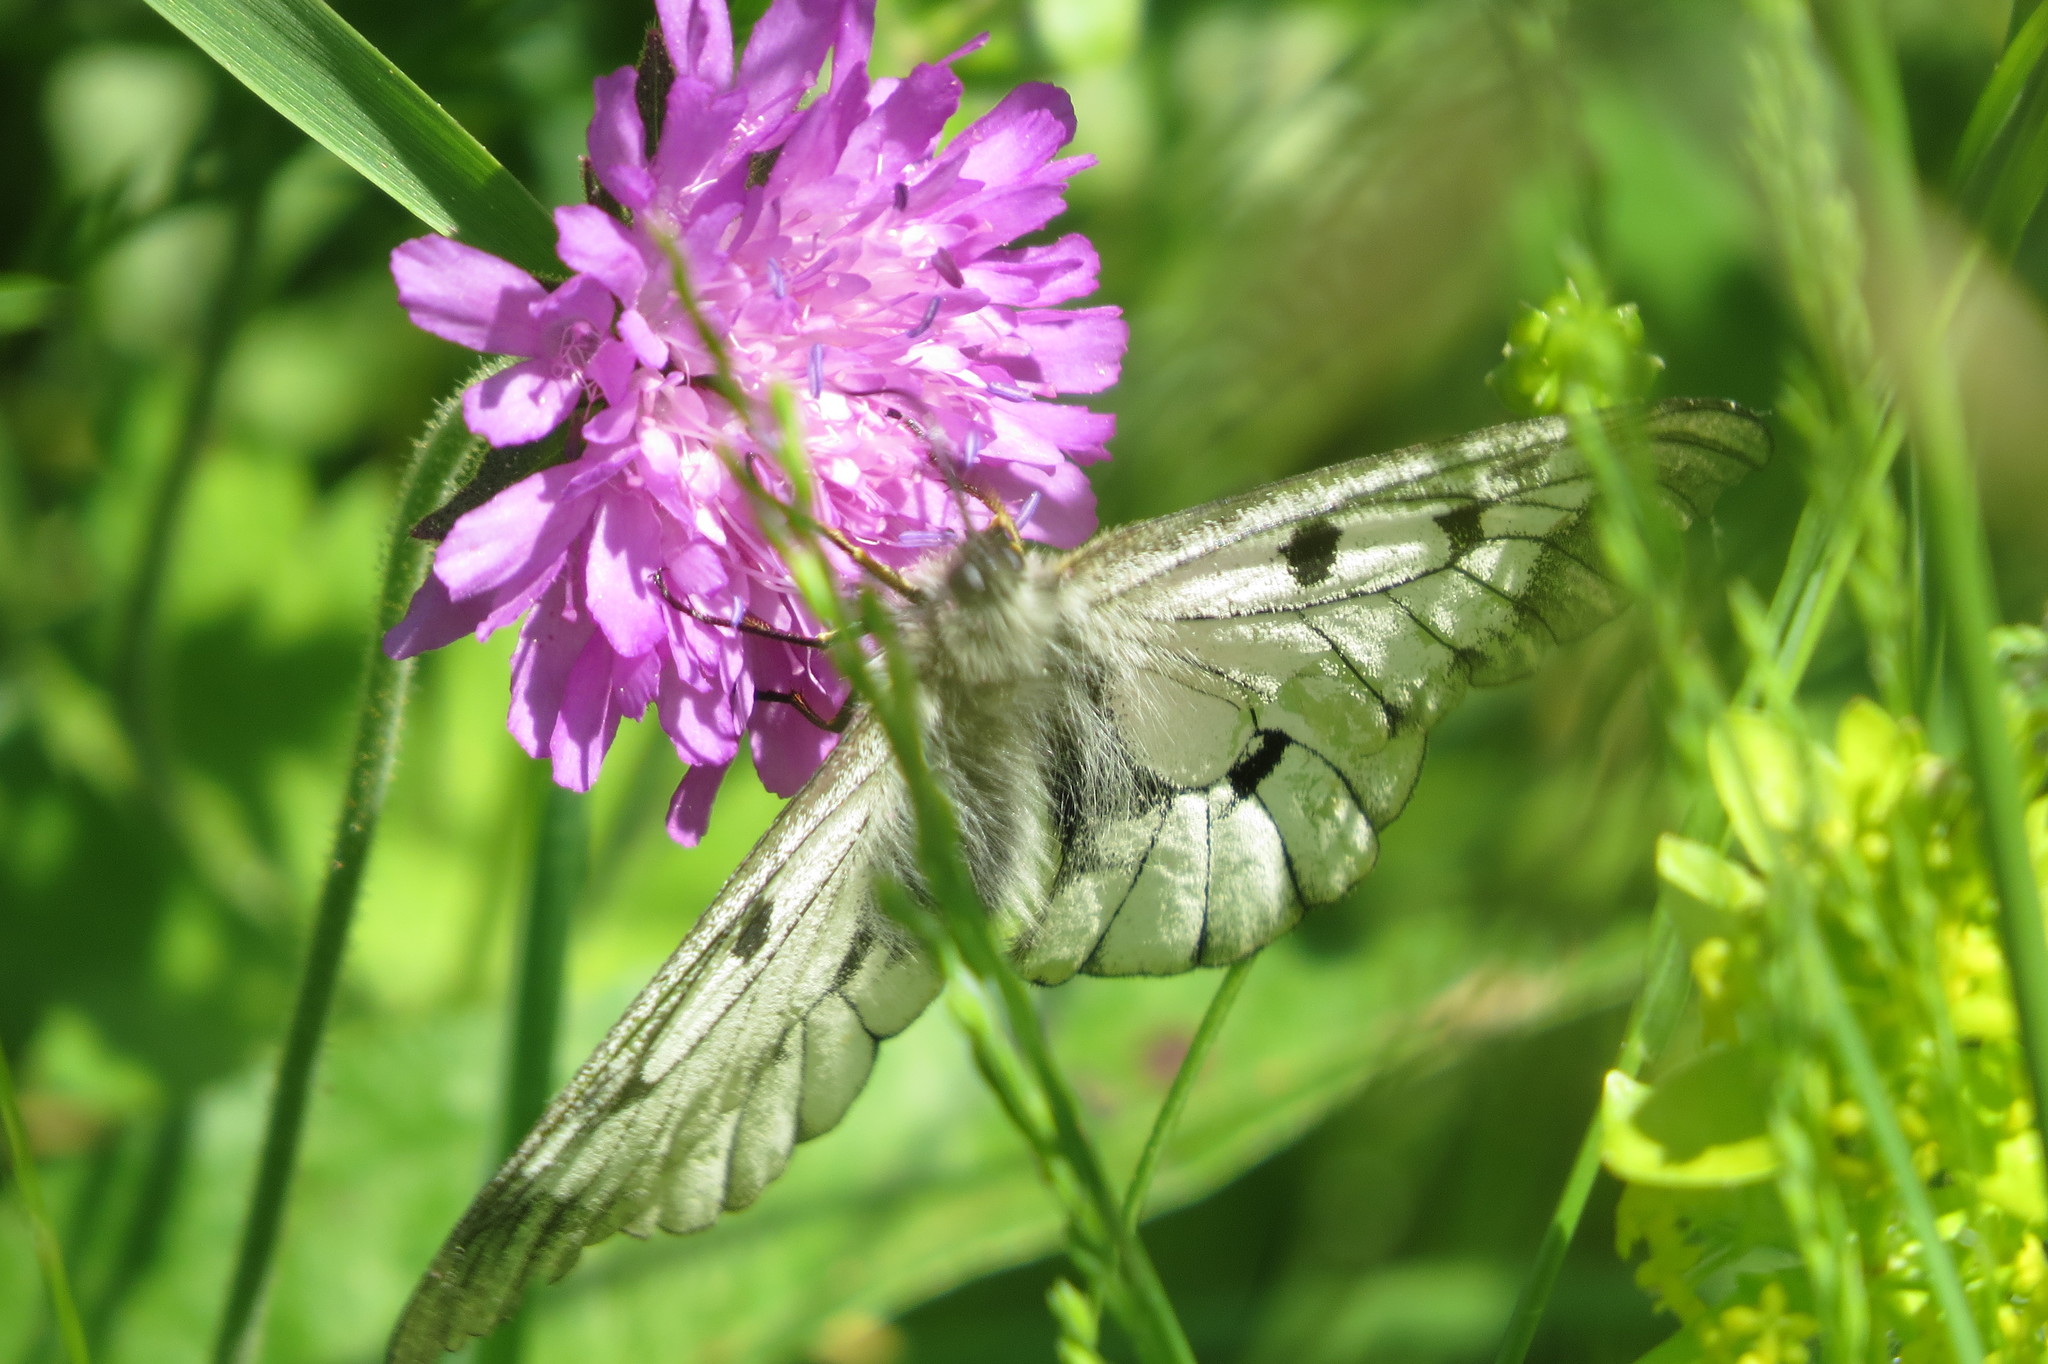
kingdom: Animalia
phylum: Arthropoda
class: Insecta
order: Lepidoptera
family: Papilionidae
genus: Parnassius
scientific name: Parnassius mnemosyne
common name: Clouded apollo
